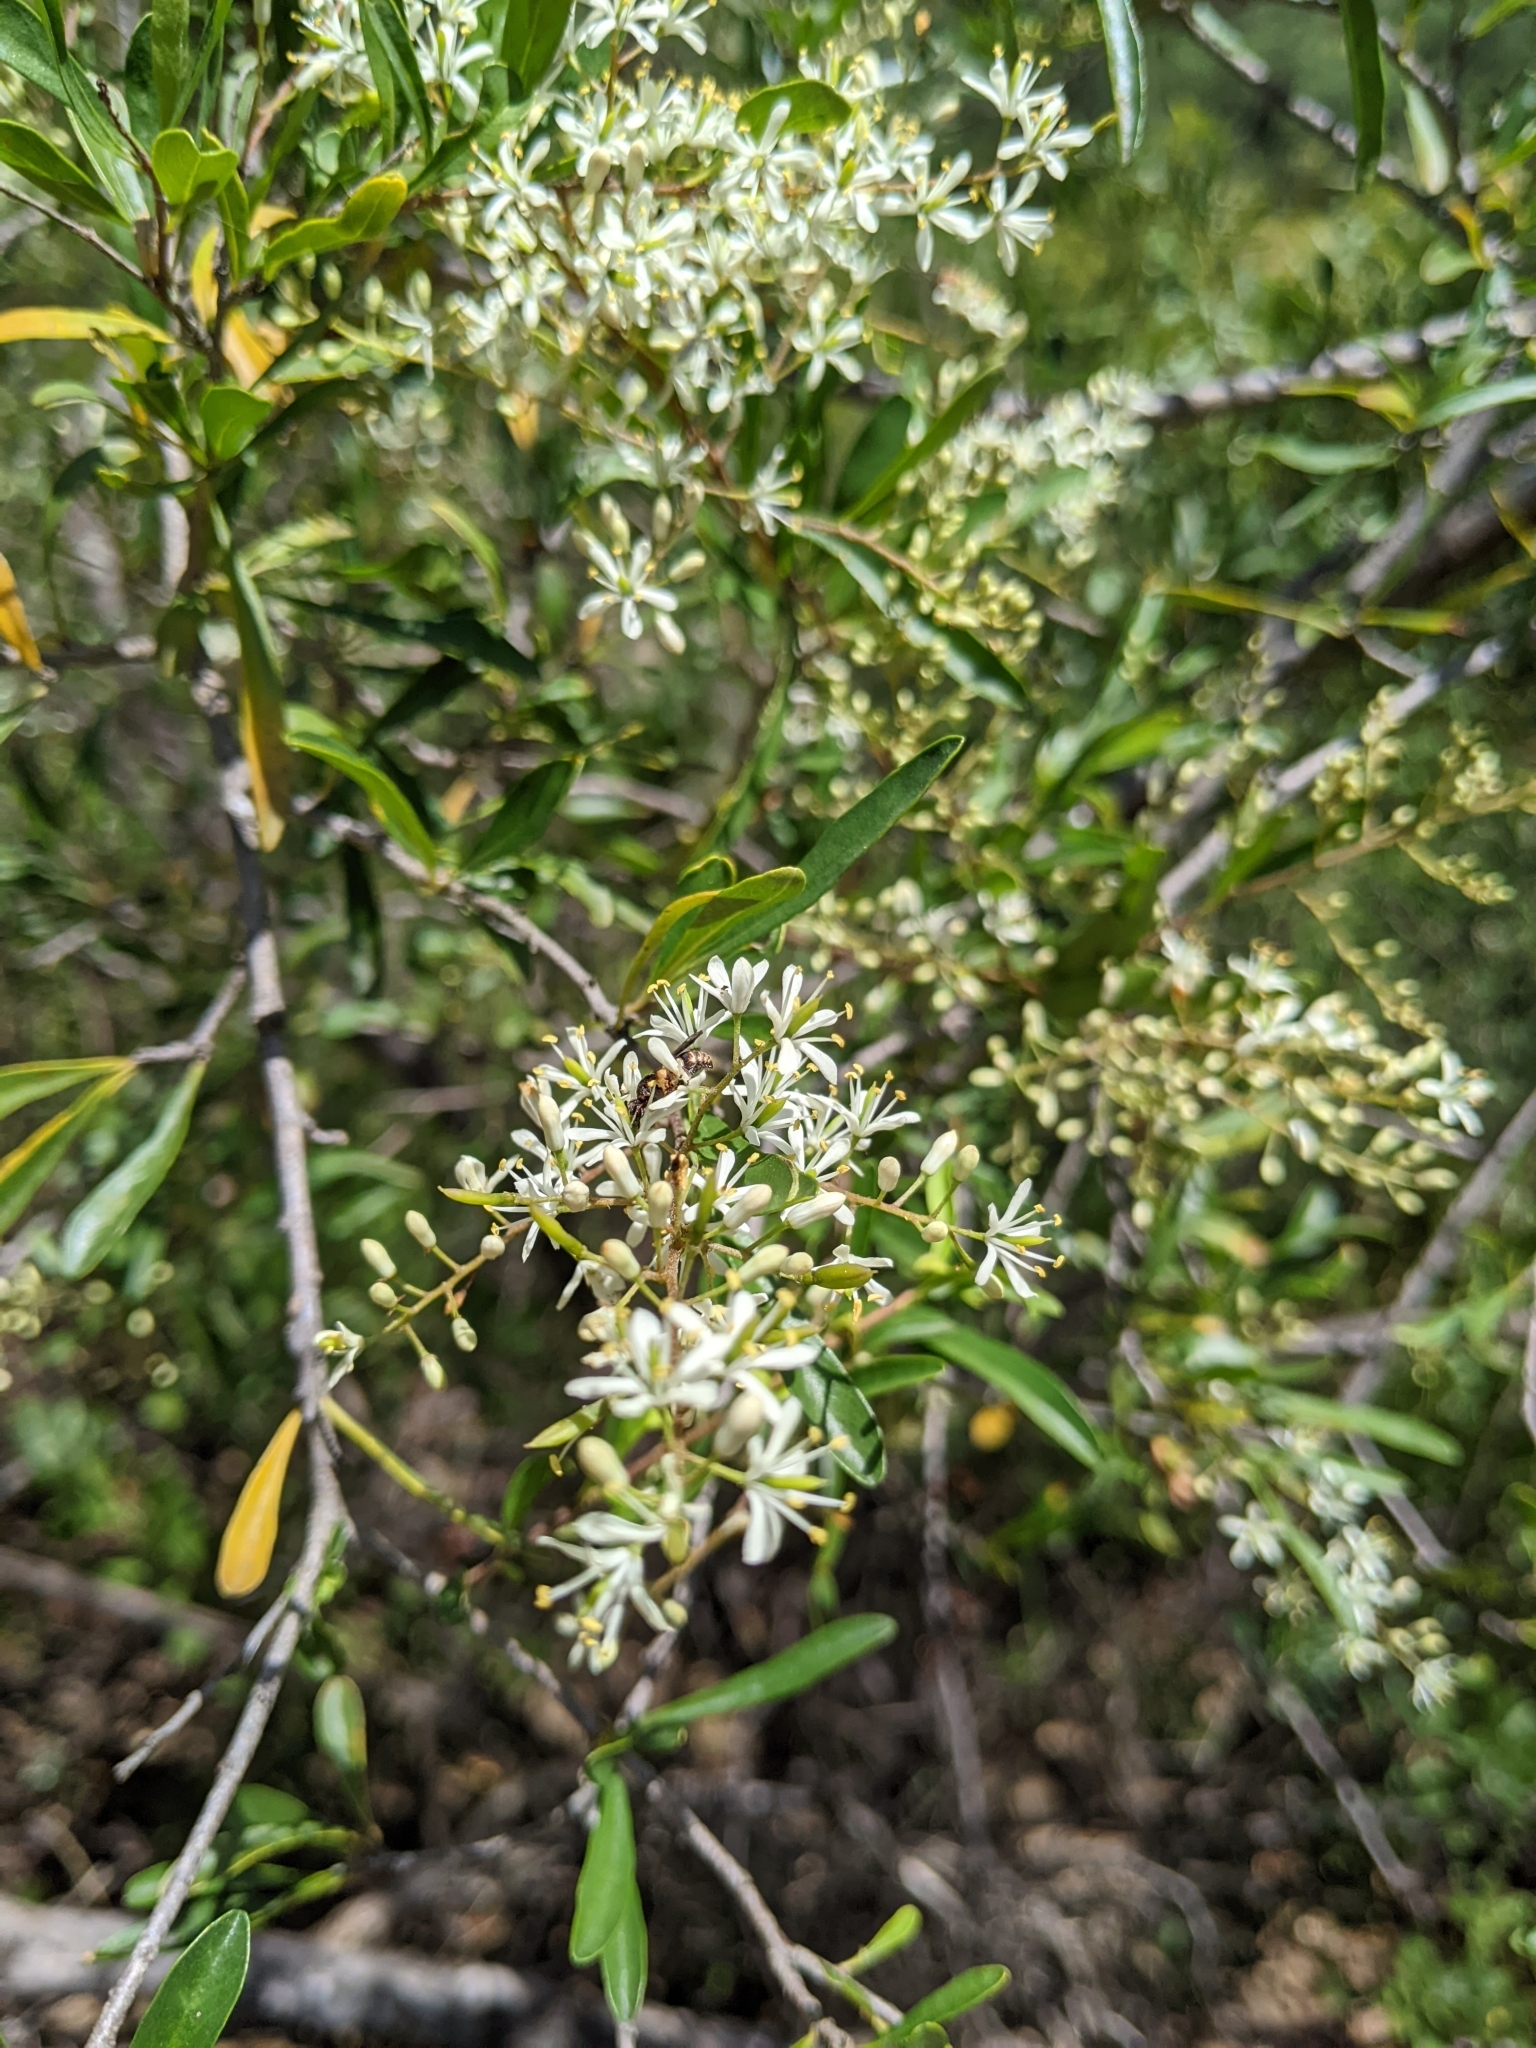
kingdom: Plantae
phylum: Tracheophyta
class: Magnoliopsida
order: Apiales
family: Pittosporaceae
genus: Bursaria
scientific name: Bursaria spinosa
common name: Australian blackthorn
